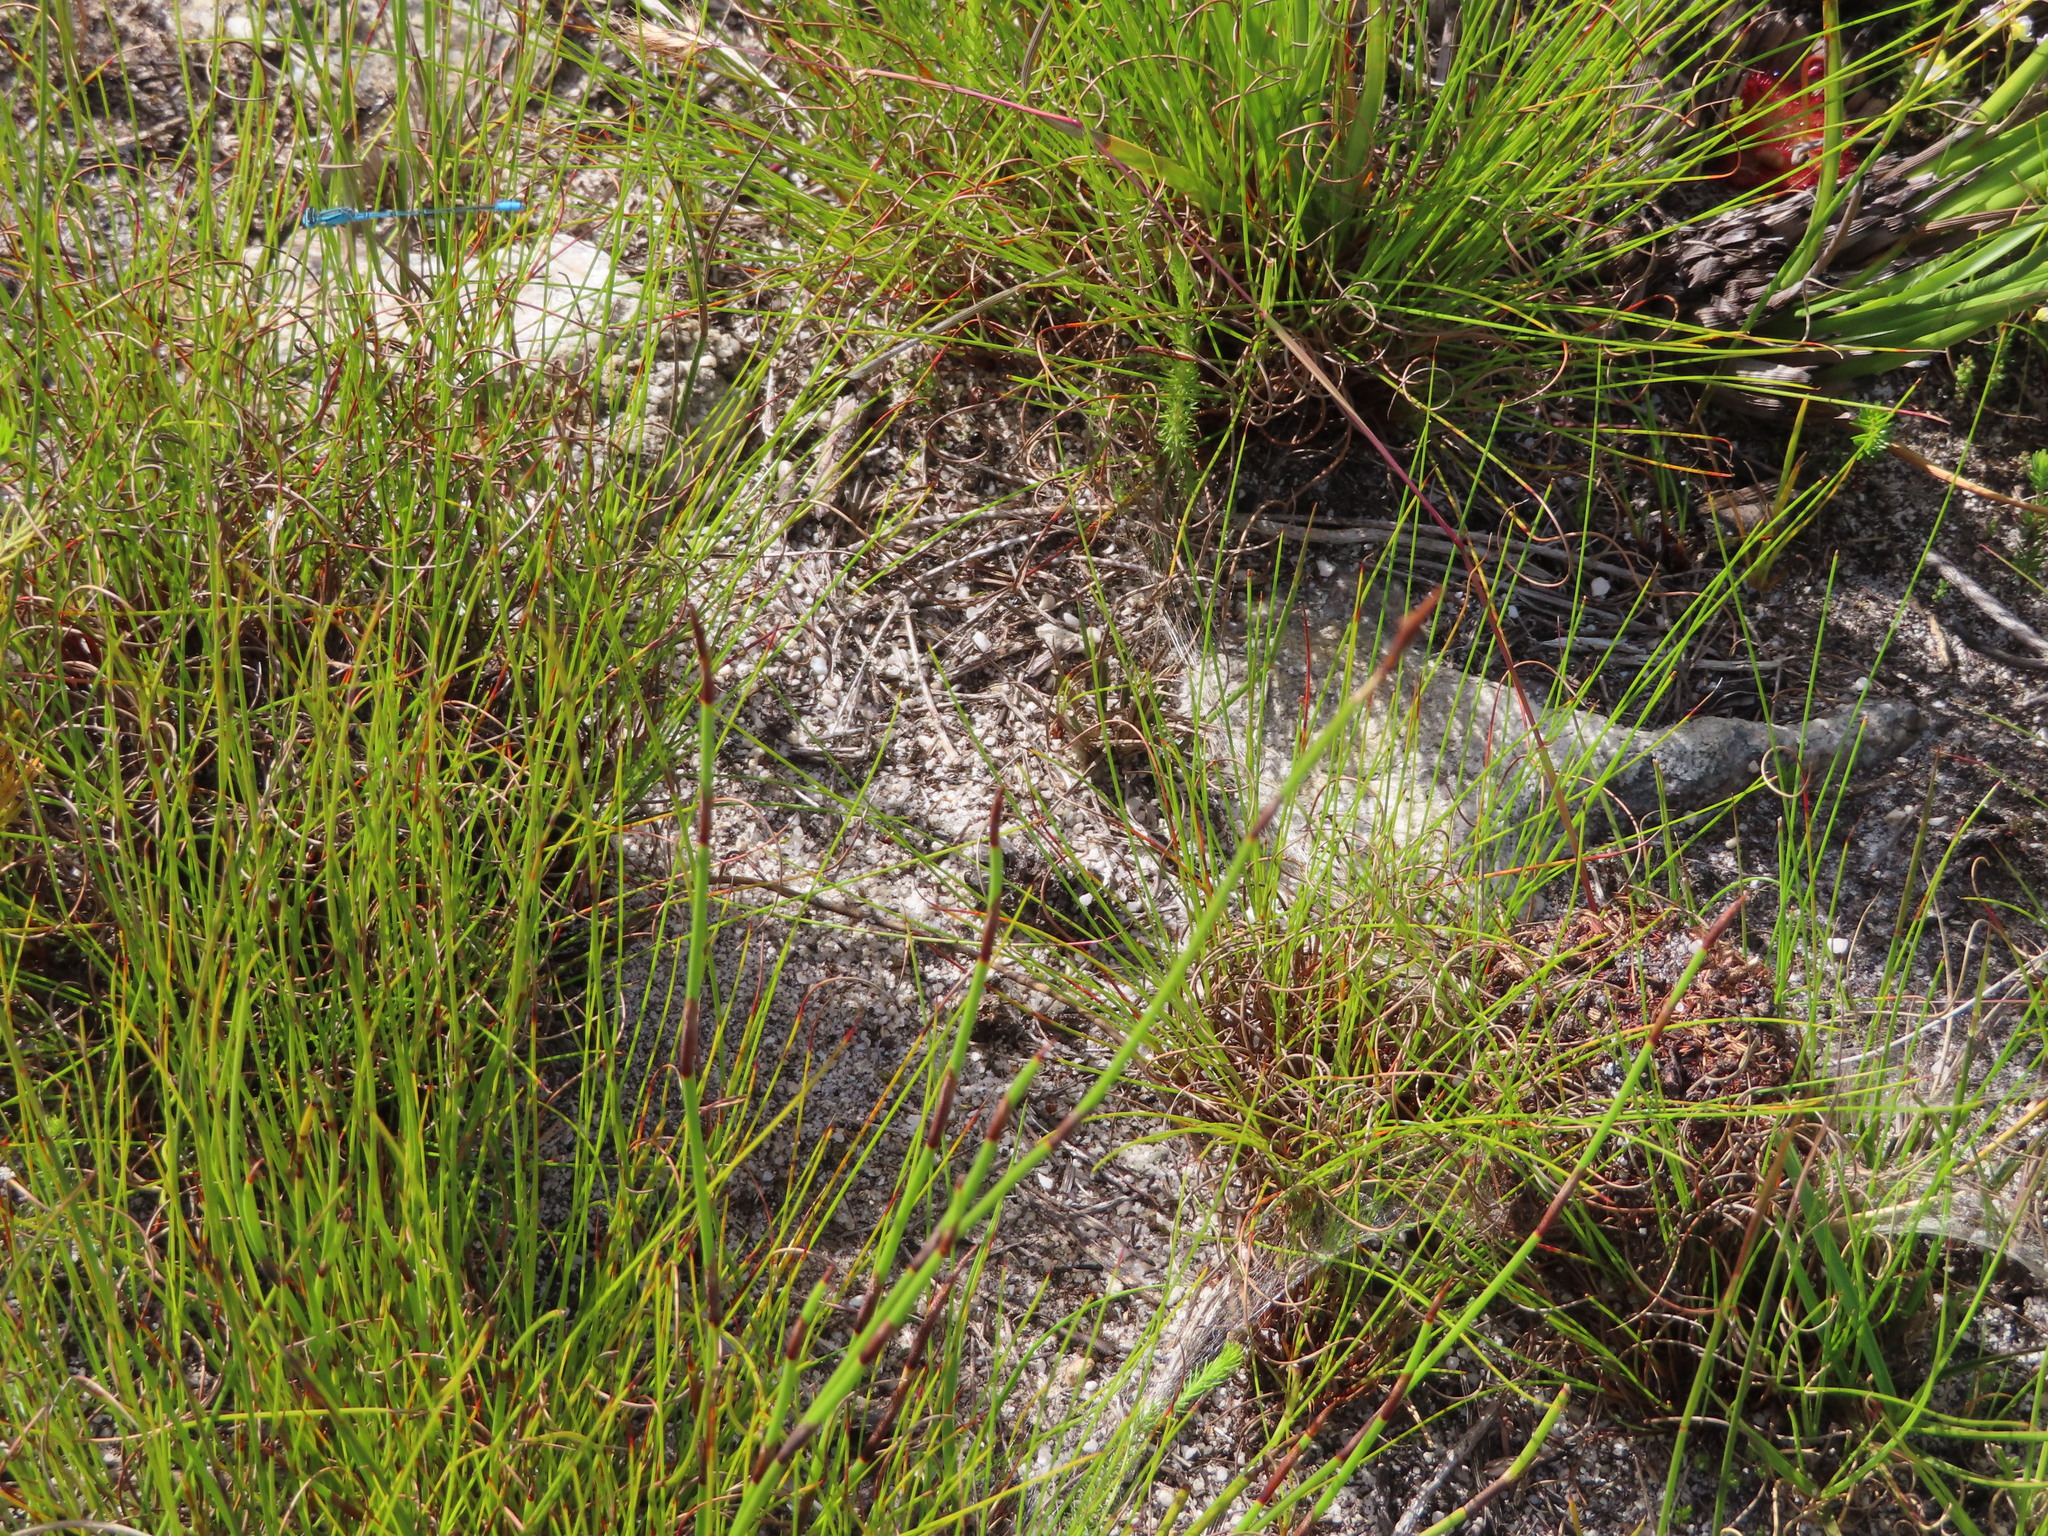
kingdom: Animalia
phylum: Arthropoda
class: Insecta
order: Odonata
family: Coenagrionidae
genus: Africallagma
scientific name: Africallagma glaucum
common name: Swamp bluet
